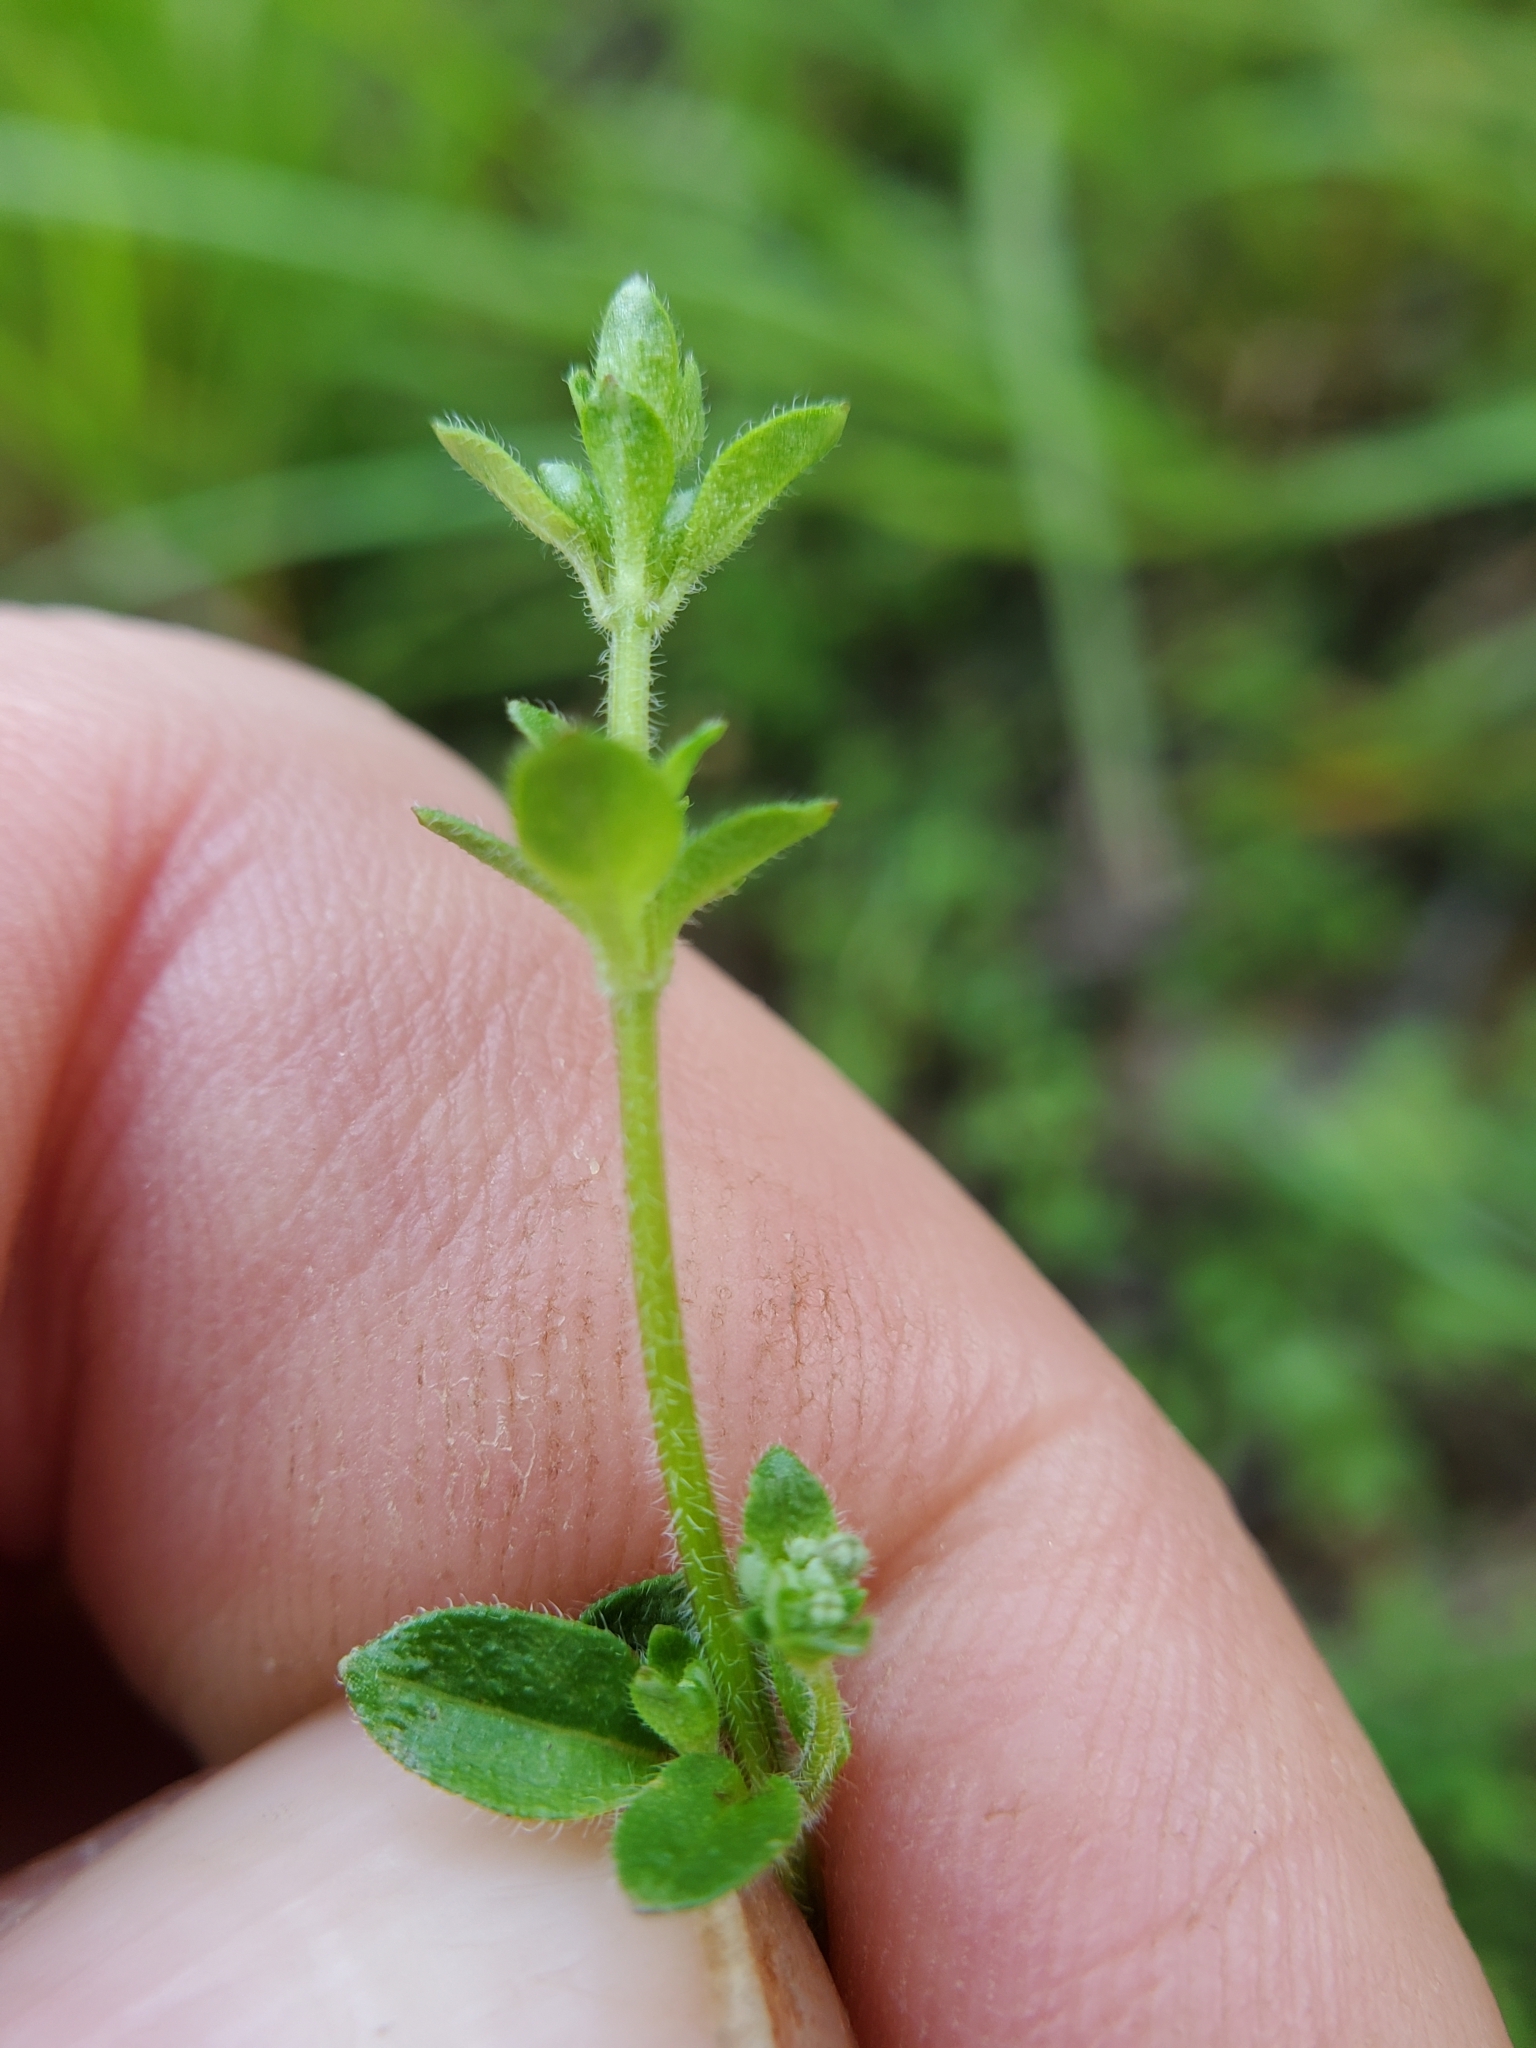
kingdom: Plantae
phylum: Tracheophyta
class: Magnoliopsida
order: Gentianales
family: Rubiaceae
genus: Galium
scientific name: Galium pilosum
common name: Hairy bedstraw
